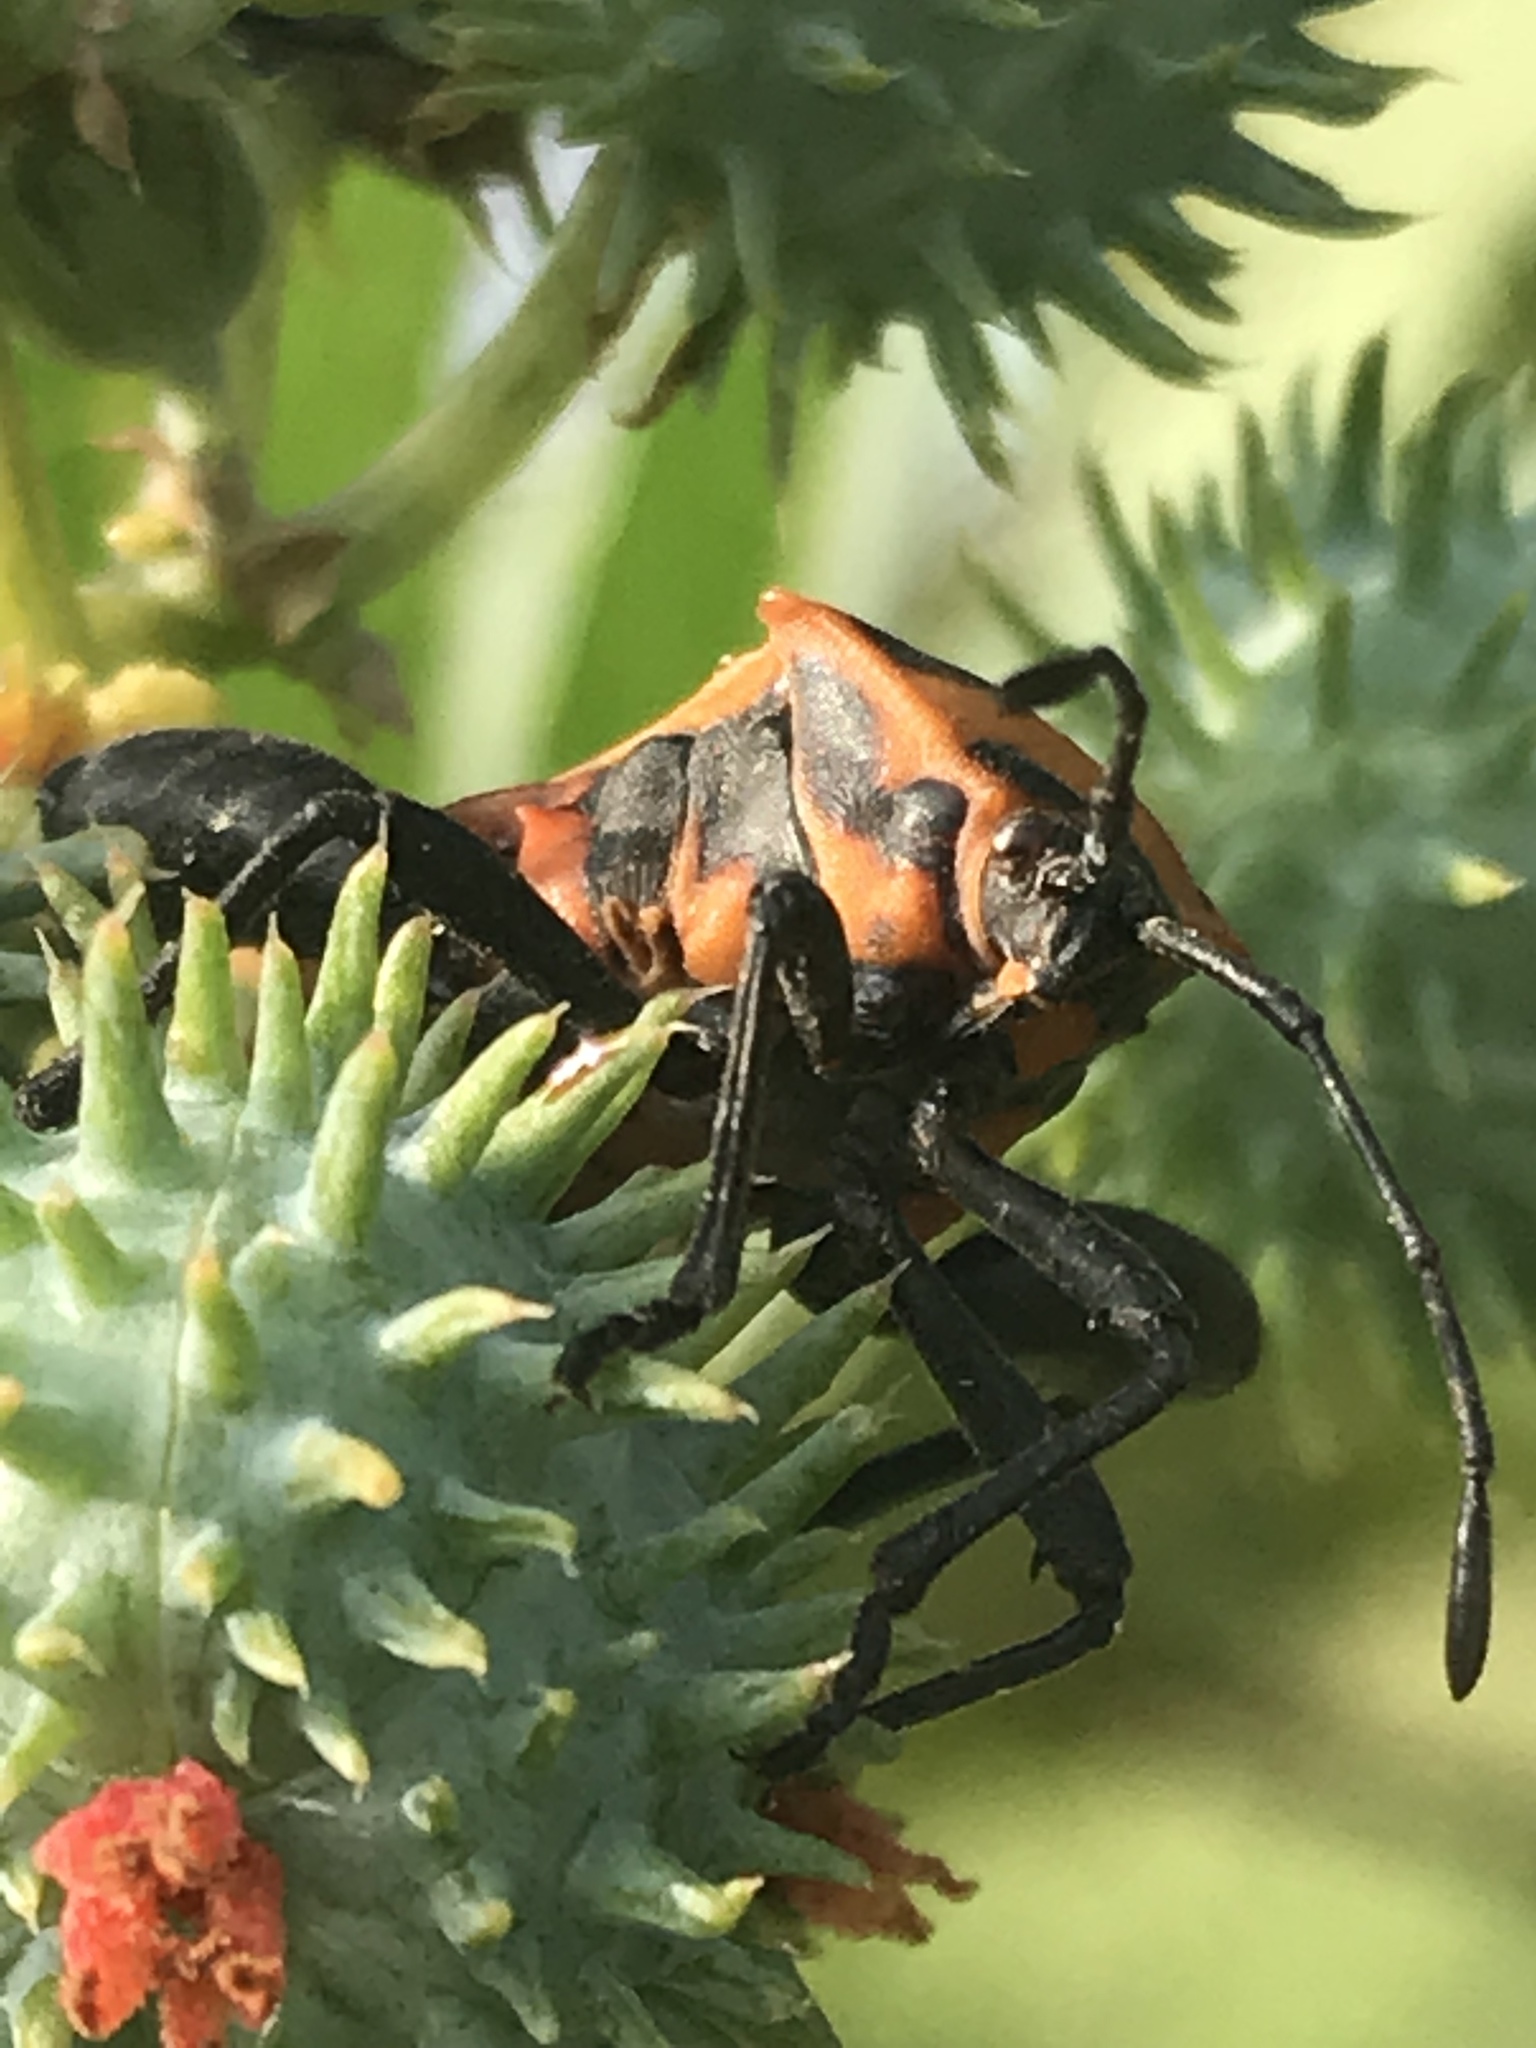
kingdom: Animalia
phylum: Arthropoda
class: Insecta
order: Hemiptera
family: Coreidae
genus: Sagotylus
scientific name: Sagotylus confluens
